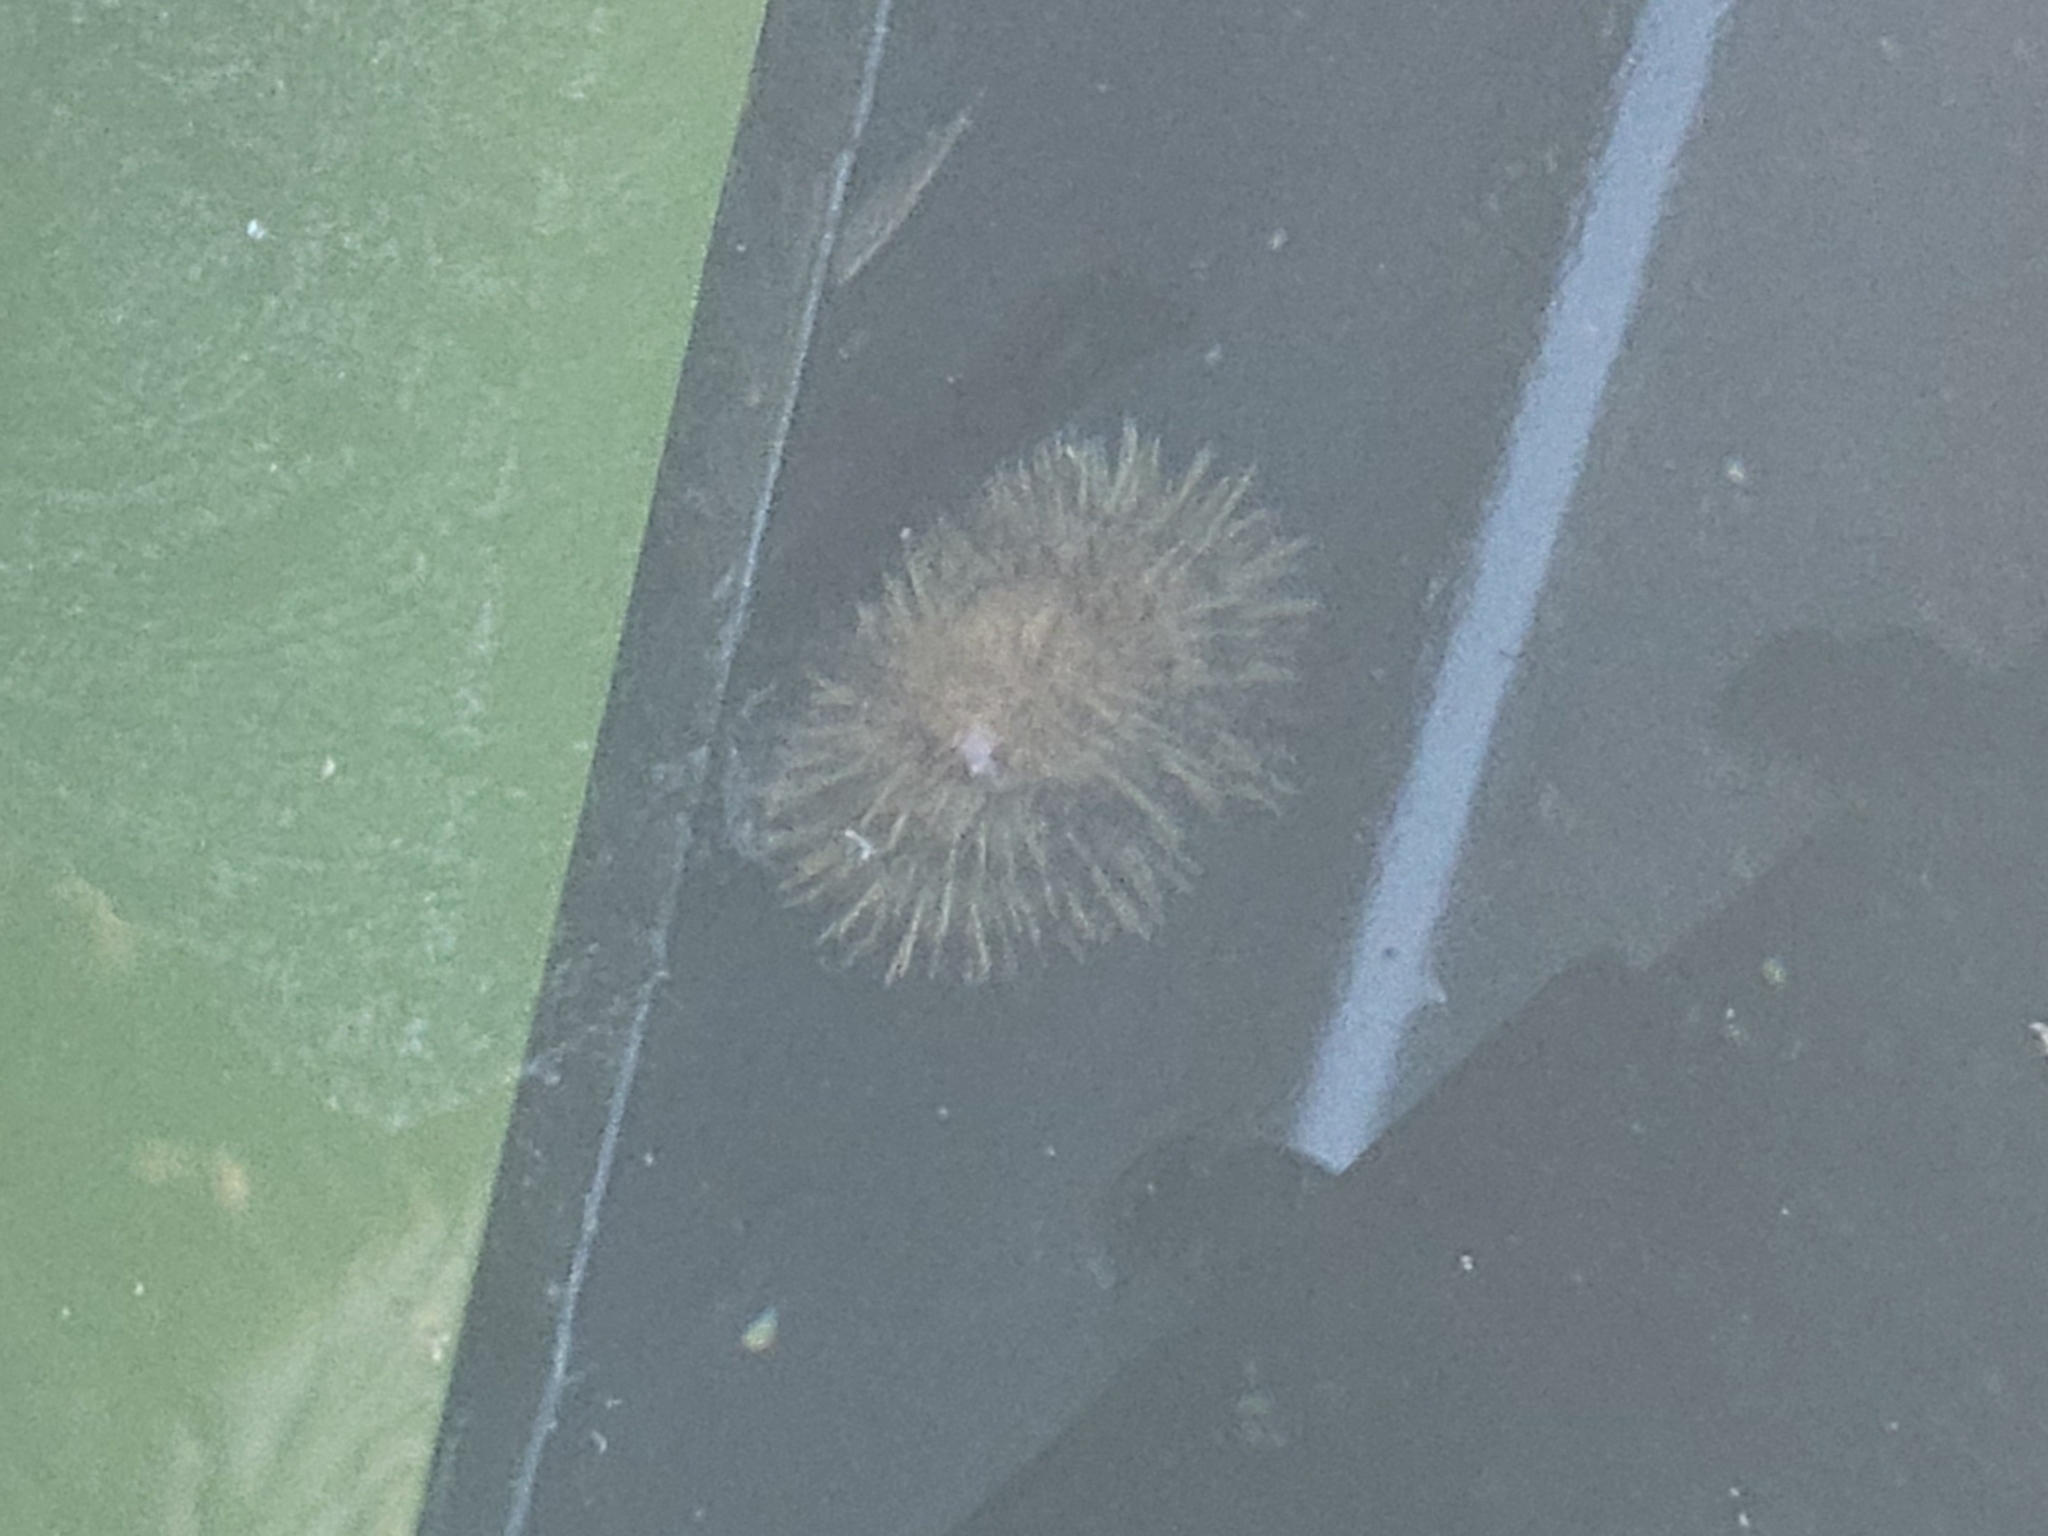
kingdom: Animalia
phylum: Echinodermata
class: Echinoidea
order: Camarodonta
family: Strongylocentrotidae
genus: Strongylocentrotus
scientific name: Strongylocentrotus droebachiensis
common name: Northern sea urchin
